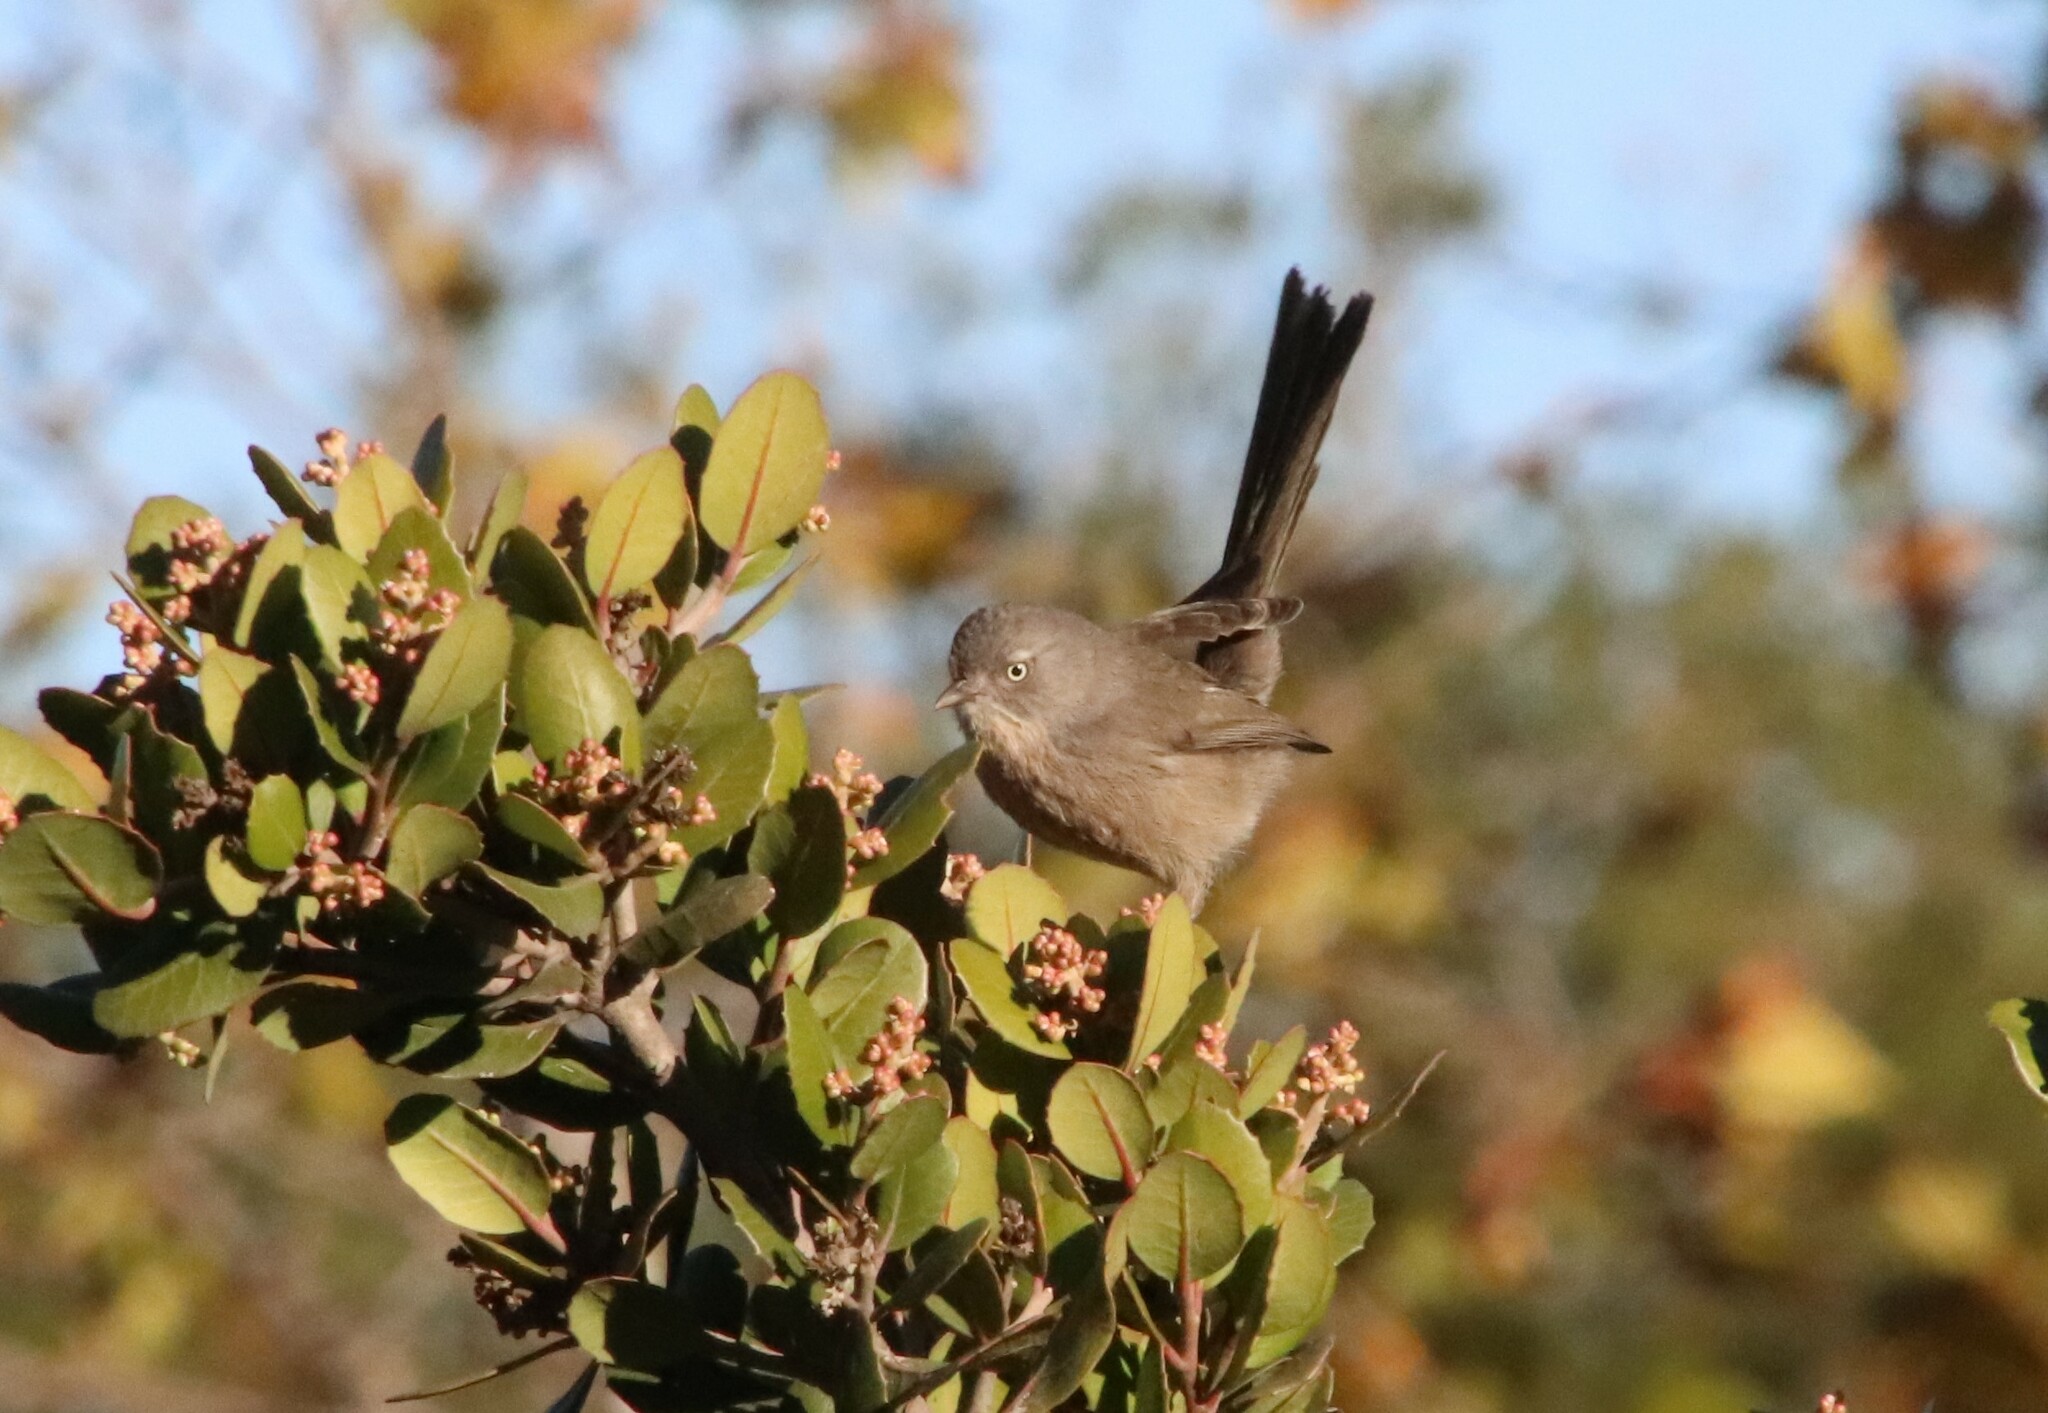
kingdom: Animalia
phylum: Chordata
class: Aves
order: Passeriformes
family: Sylviidae
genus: Chamaea
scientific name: Chamaea fasciata
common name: Wrentit
